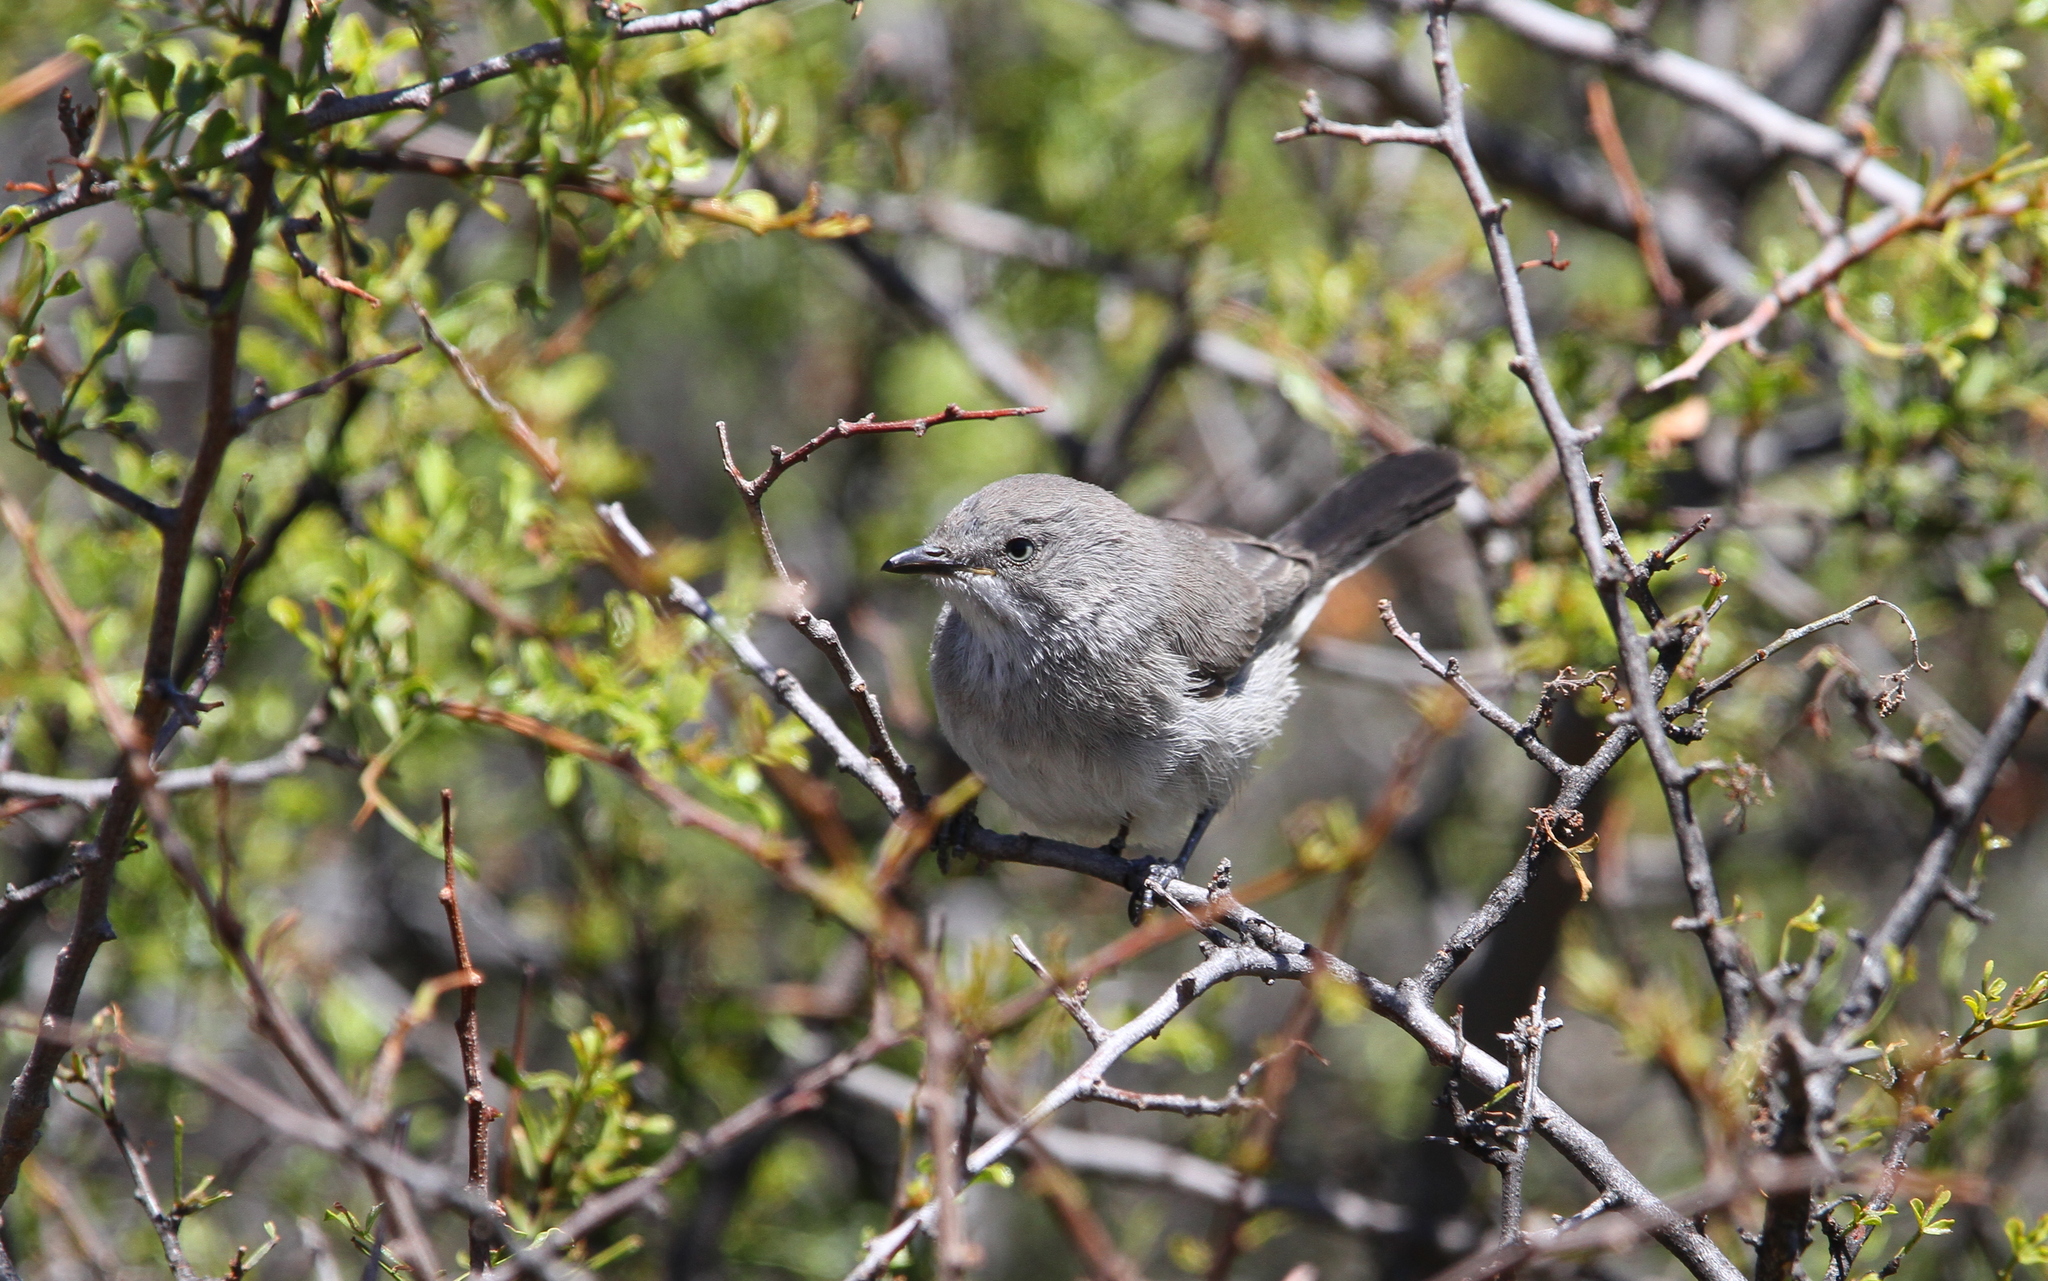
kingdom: Animalia
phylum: Chordata
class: Aves
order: Passeriformes
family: Sylviidae
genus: Sylvia
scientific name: Sylvia layardi
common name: Layard's warbler
